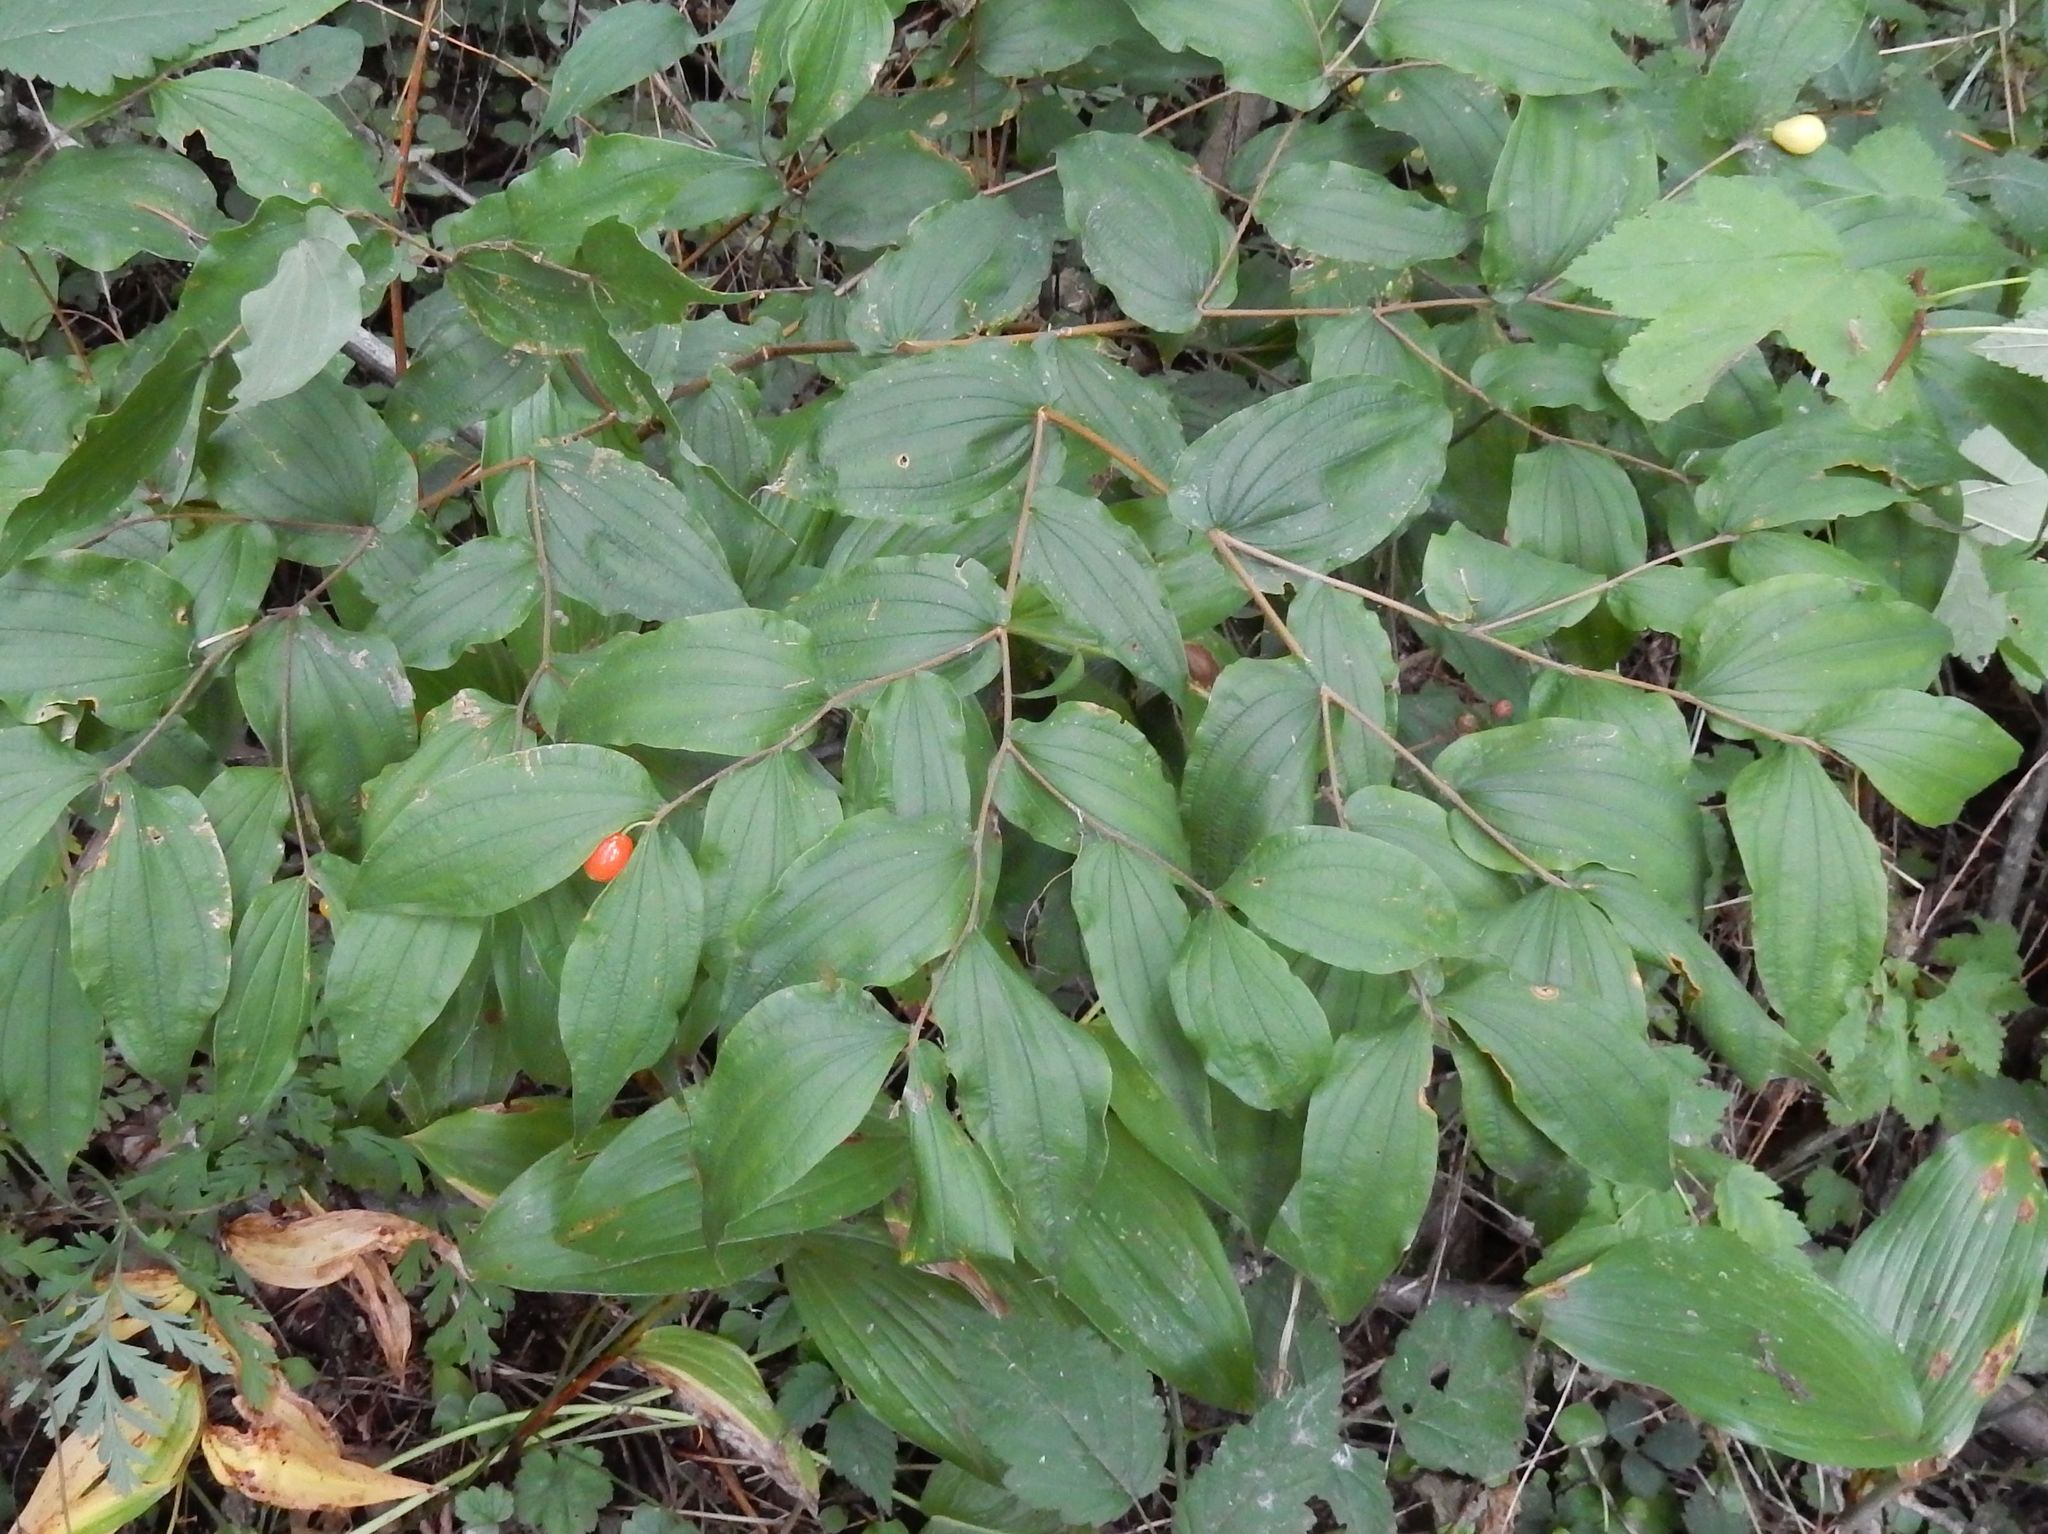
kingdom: Plantae
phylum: Tracheophyta
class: Liliopsida
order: Liliales
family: Liliaceae
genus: Prosartes
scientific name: Prosartes hookeri
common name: Fairy-bells
